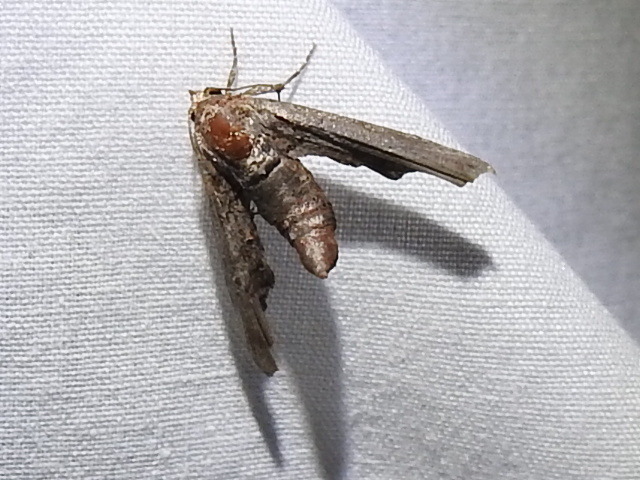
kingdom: Animalia
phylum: Arthropoda
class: Insecta
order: Lepidoptera
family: Euteliidae
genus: Marathyssa
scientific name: Marathyssa inficita
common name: Dark marathyssa moth
